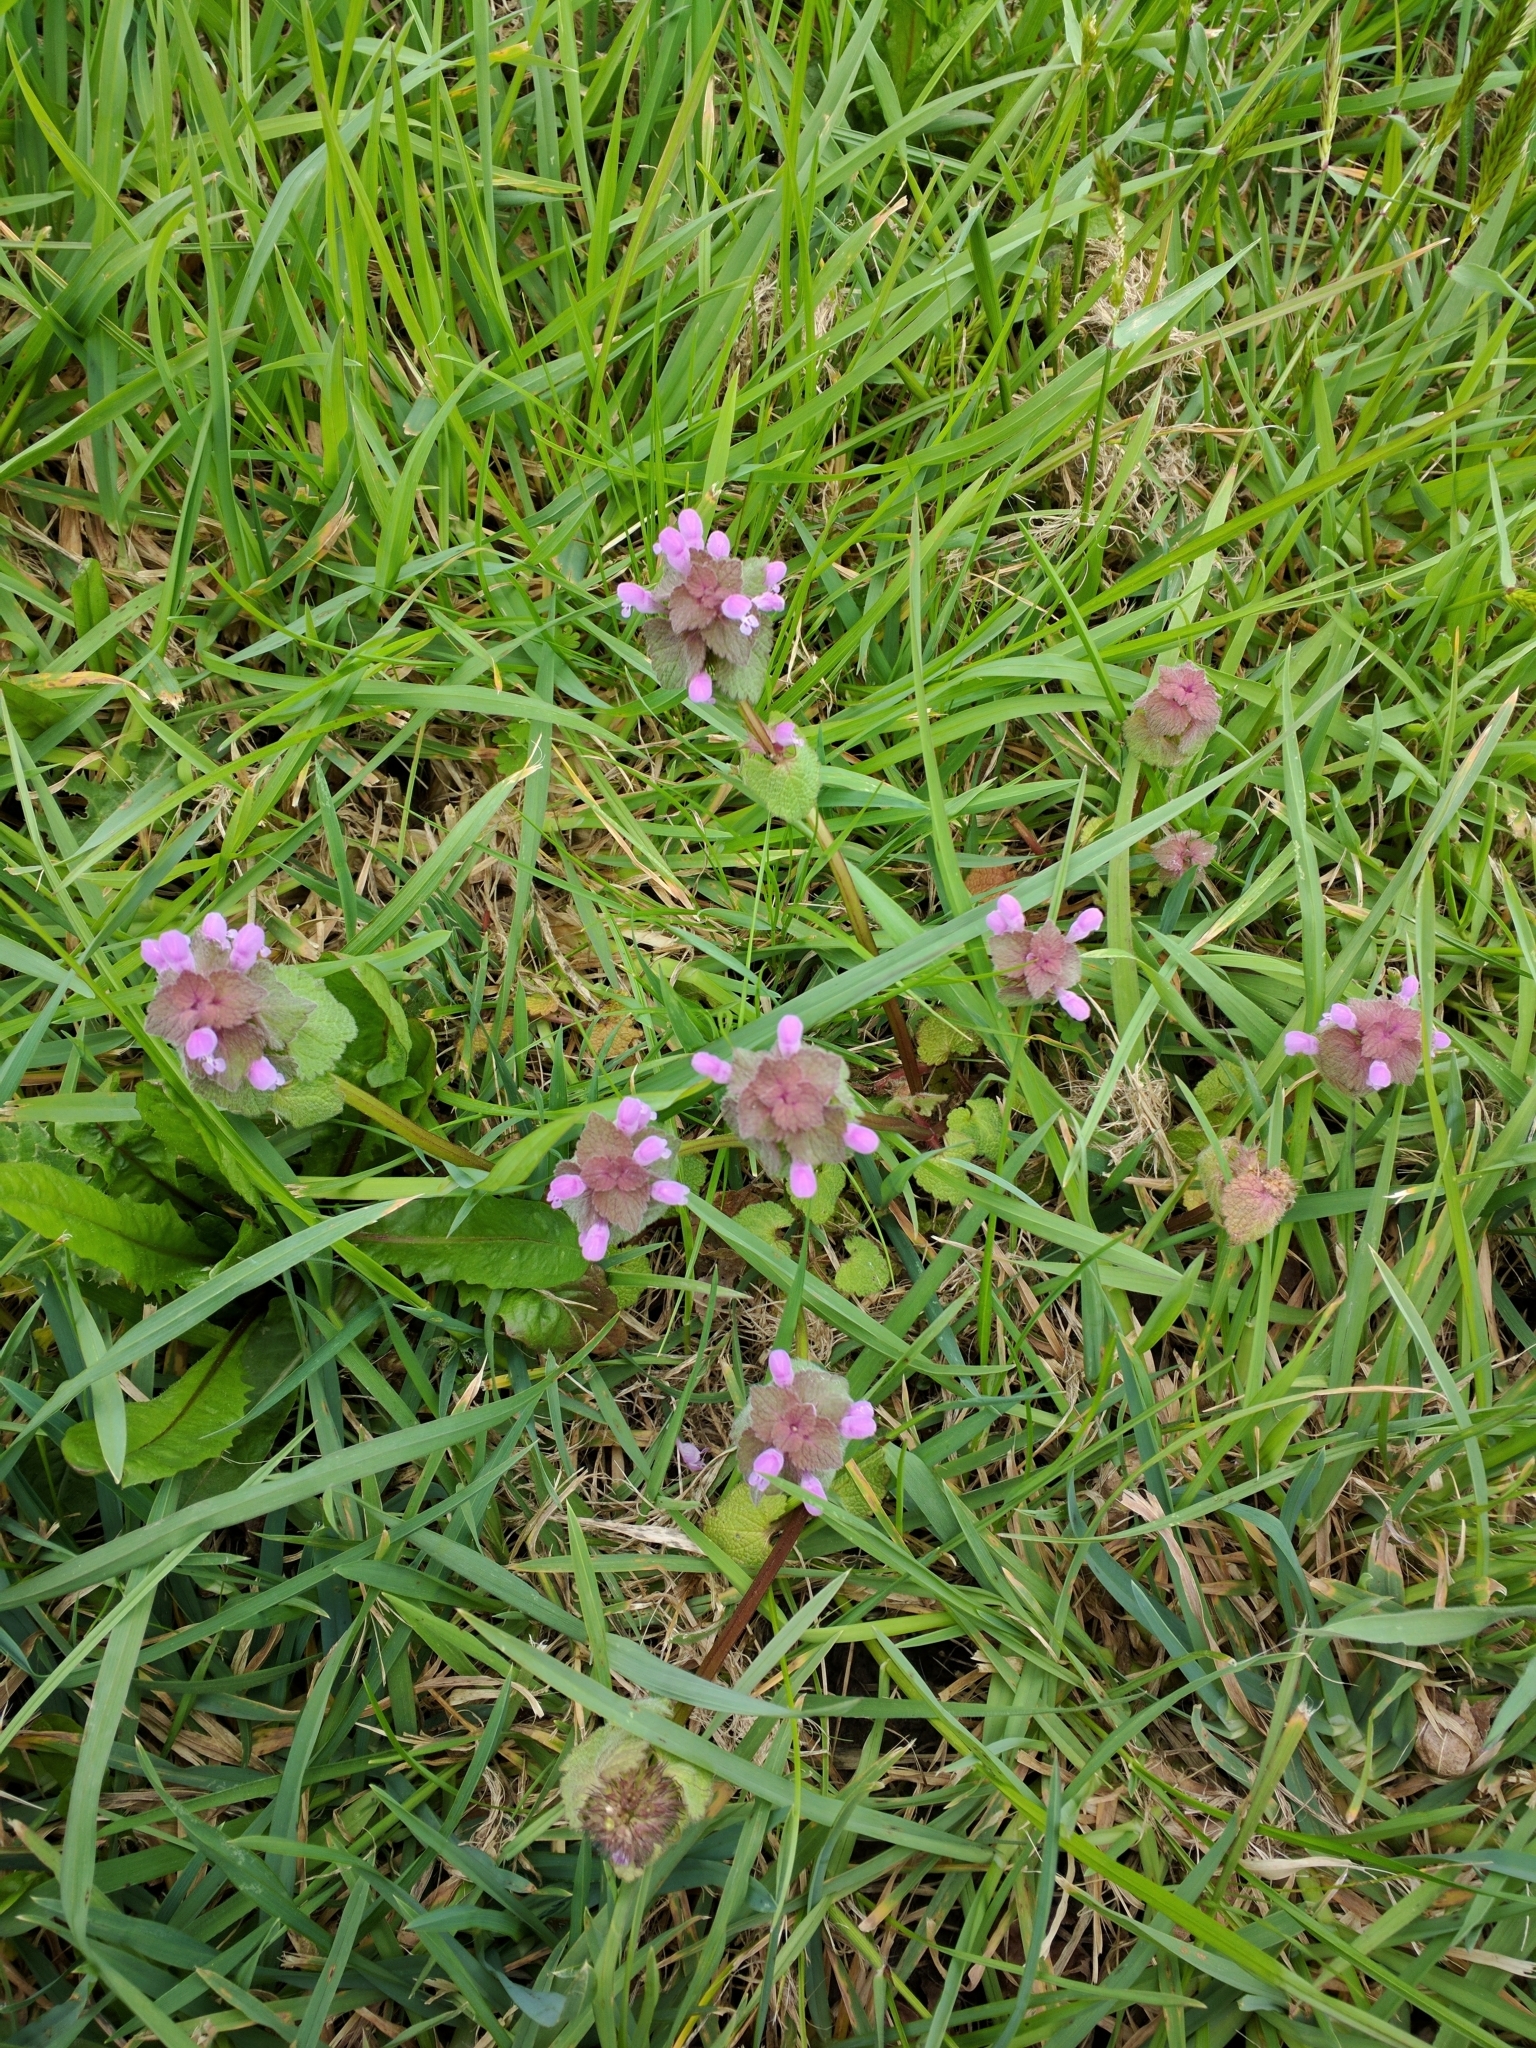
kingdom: Plantae
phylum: Tracheophyta
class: Magnoliopsida
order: Lamiales
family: Lamiaceae
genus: Lamium
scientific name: Lamium purpureum
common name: Red dead-nettle
